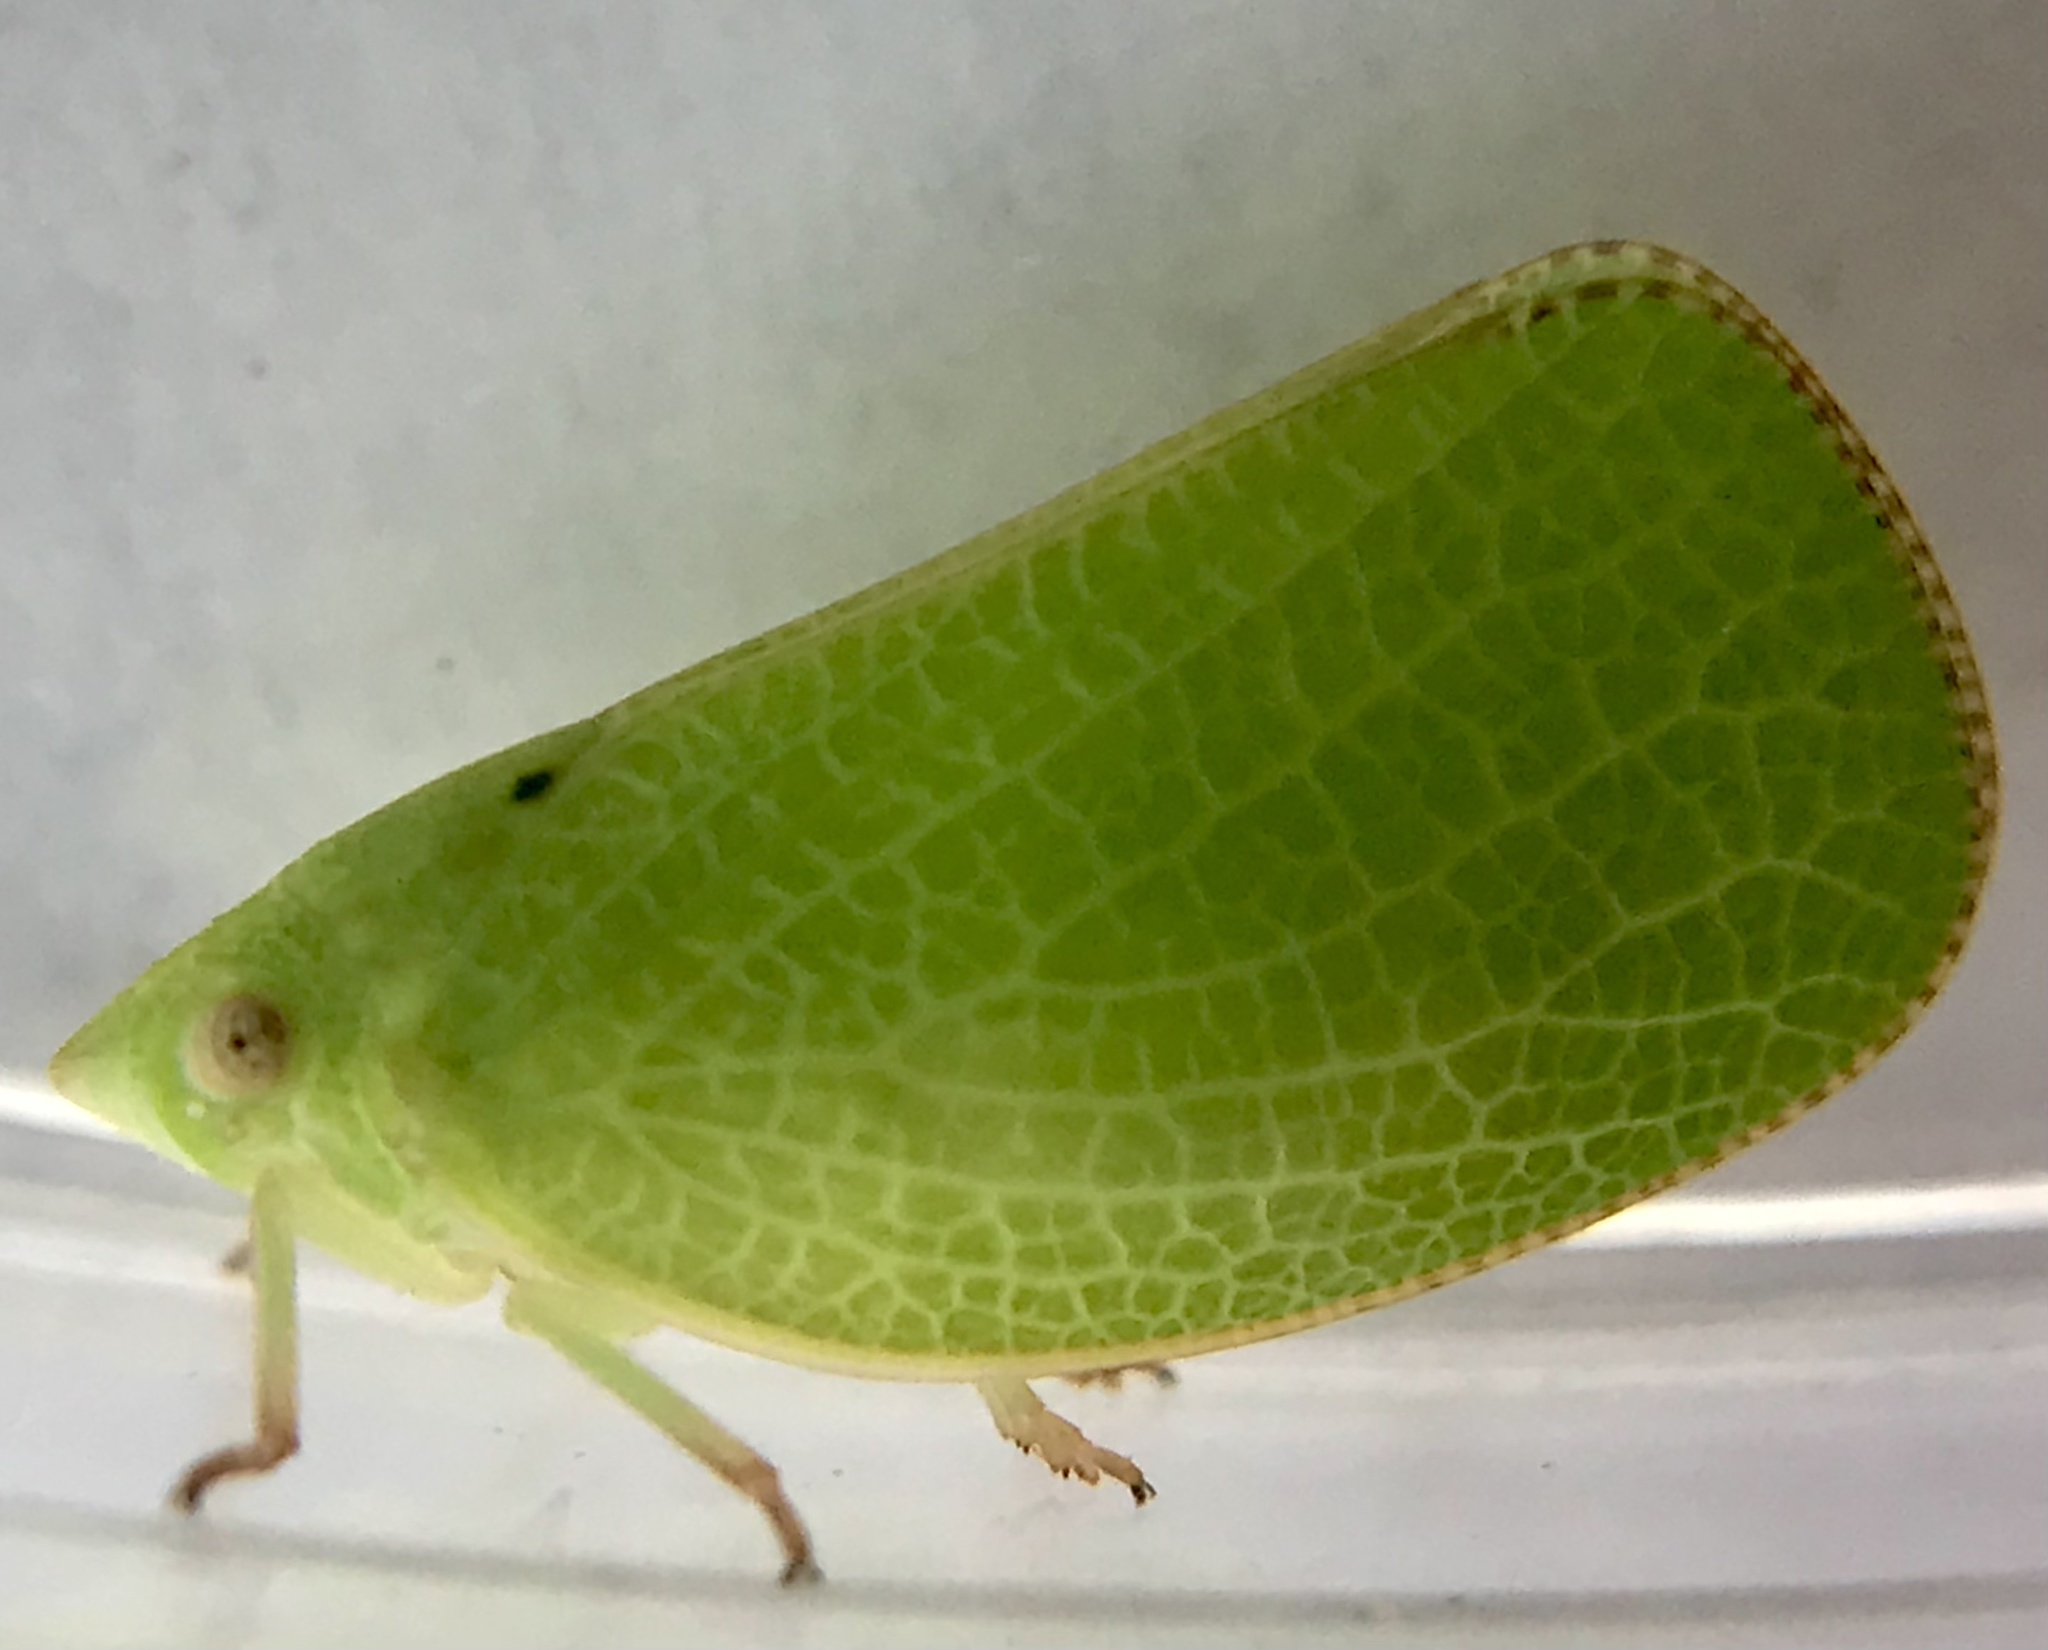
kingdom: Animalia
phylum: Arthropoda
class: Insecta
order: Hemiptera
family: Acanaloniidae
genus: Acanalonia
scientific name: Acanalonia conica
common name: Green cone-headed planthopper
